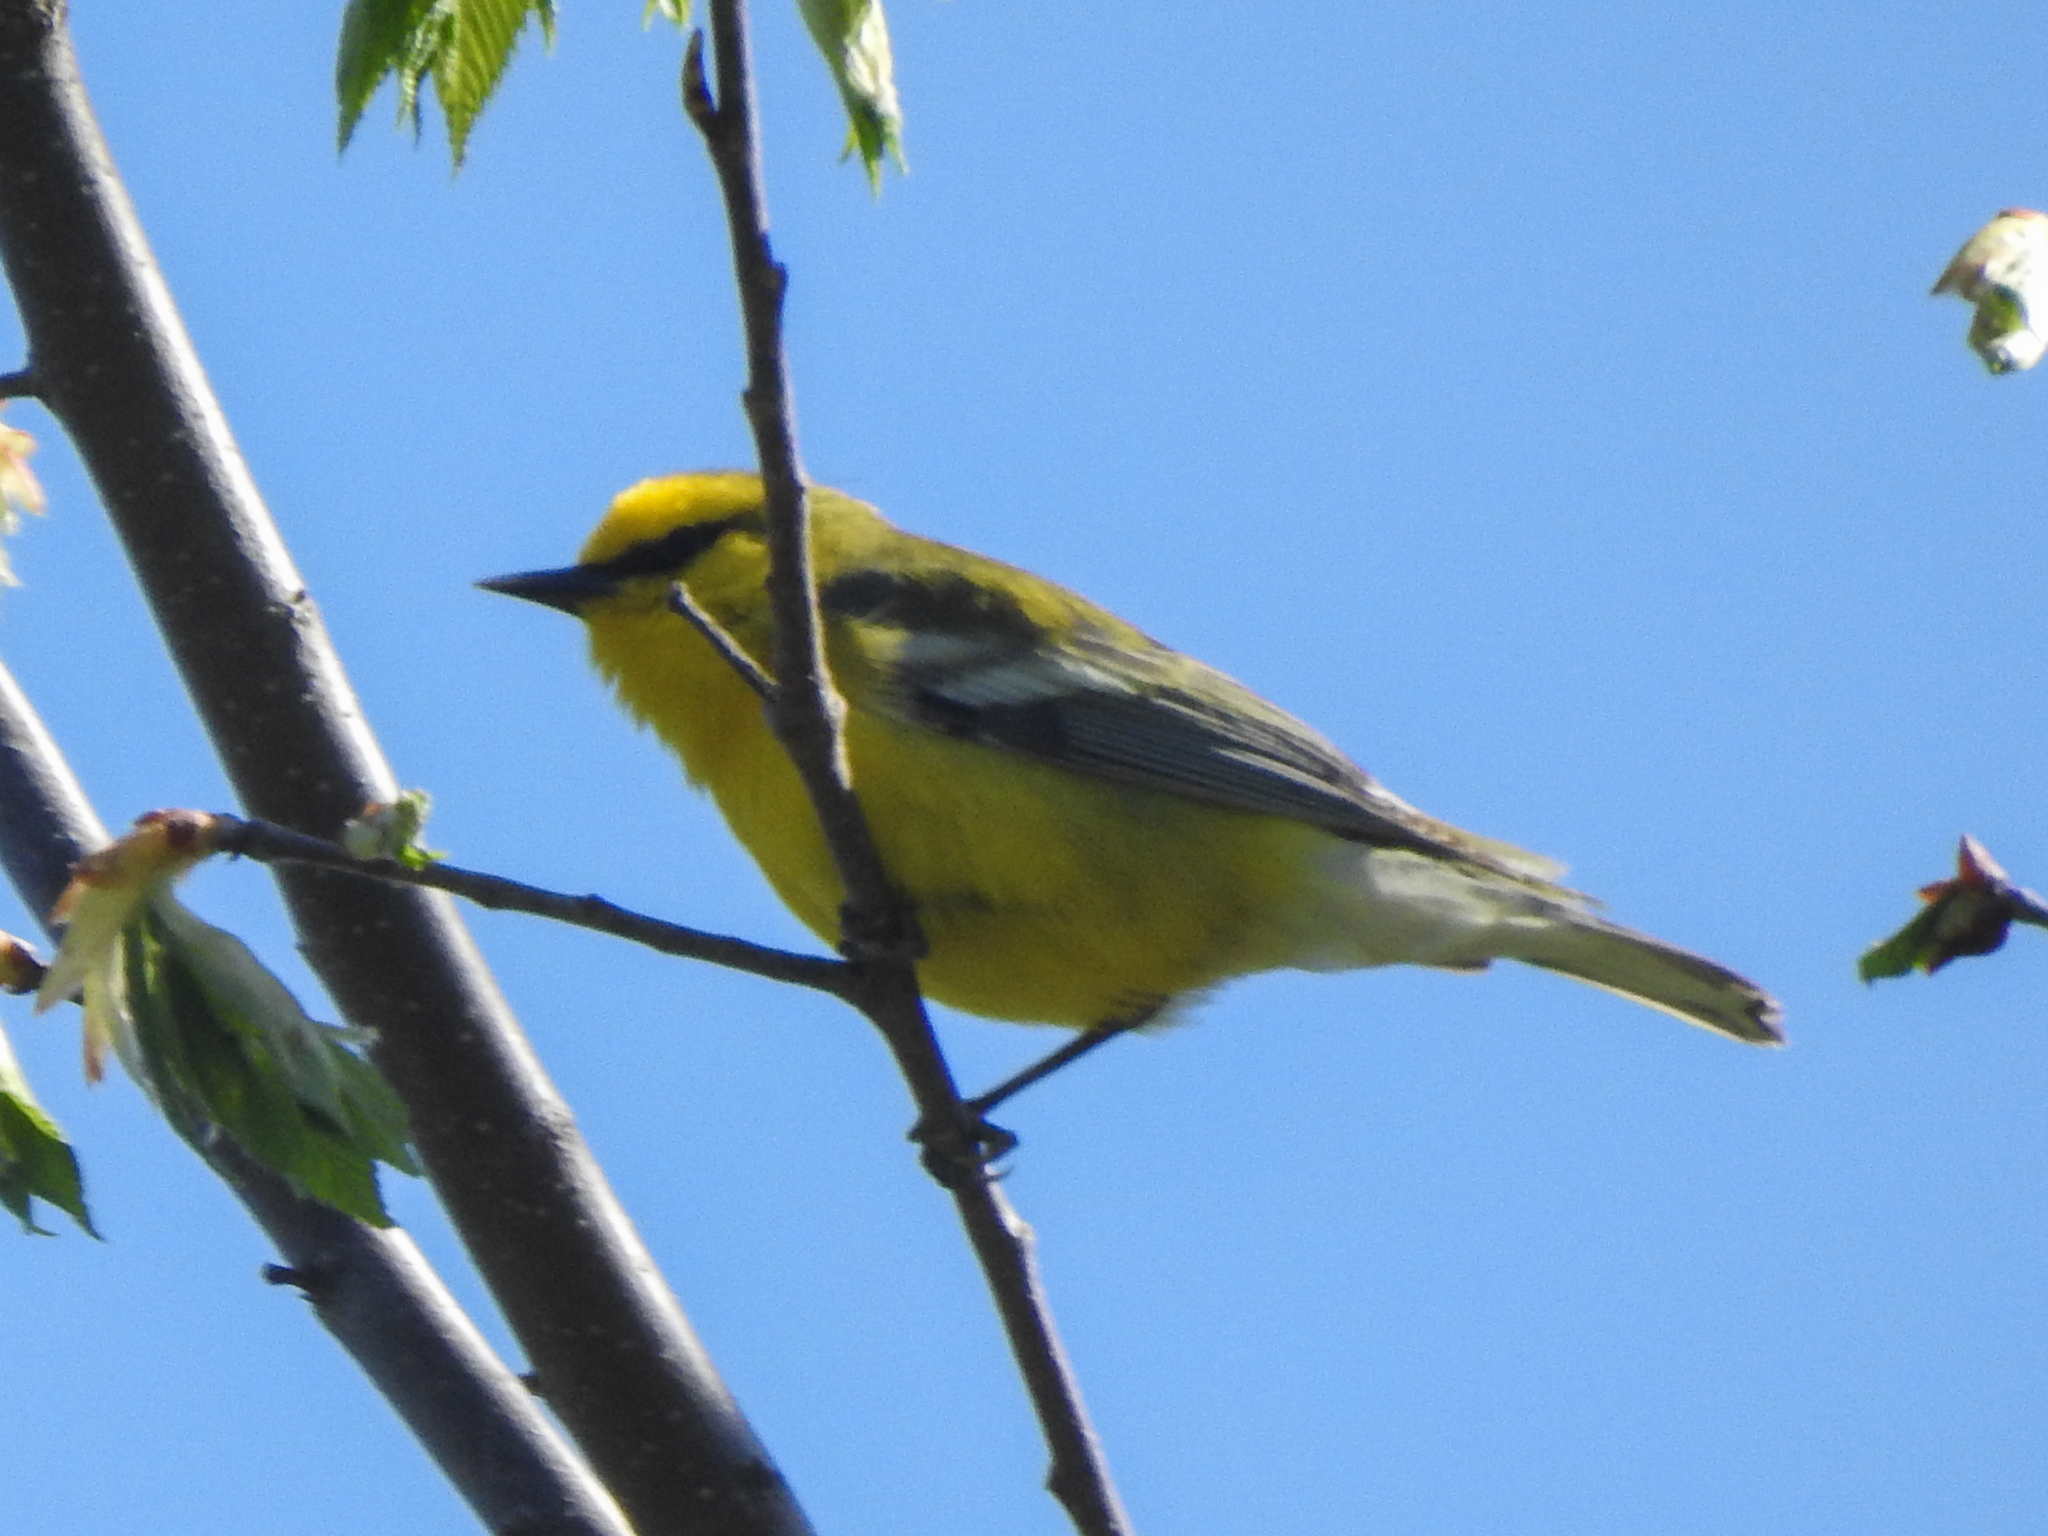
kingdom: Animalia
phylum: Chordata
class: Aves
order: Passeriformes
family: Parulidae
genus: Vermivora
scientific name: Vermivora cyanoptera
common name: Blue-winged warbler
